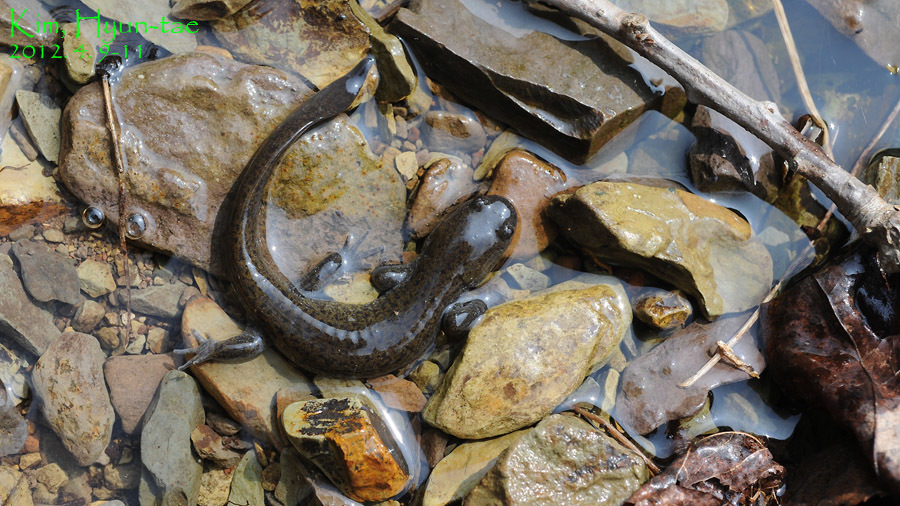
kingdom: Animalia
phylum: Chordata
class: Amphibia
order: Caudata
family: Hynobiidae
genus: Hynobius
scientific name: Hynobius leechii
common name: Gensan salamander
